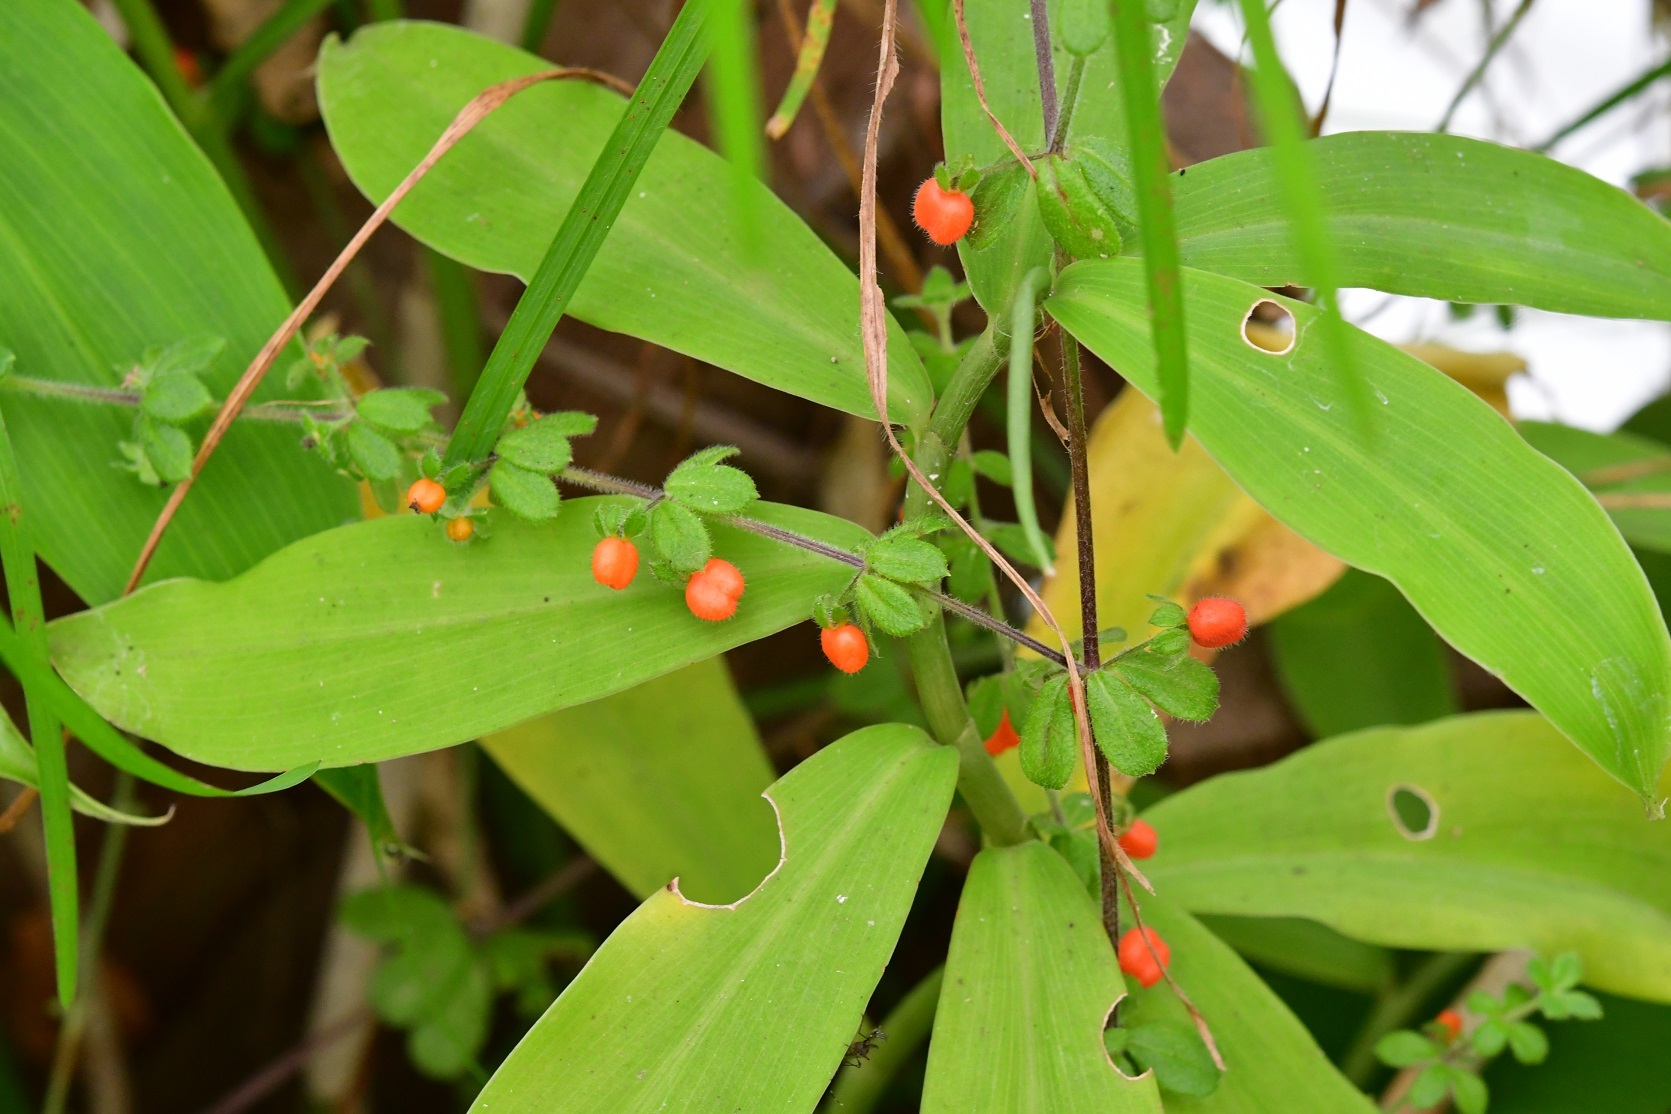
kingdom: Plantae
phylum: Tracheophyta
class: Magnoliopsida
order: Gentianales
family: Rubiaceae
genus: Galium
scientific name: Galium hypocarpium
